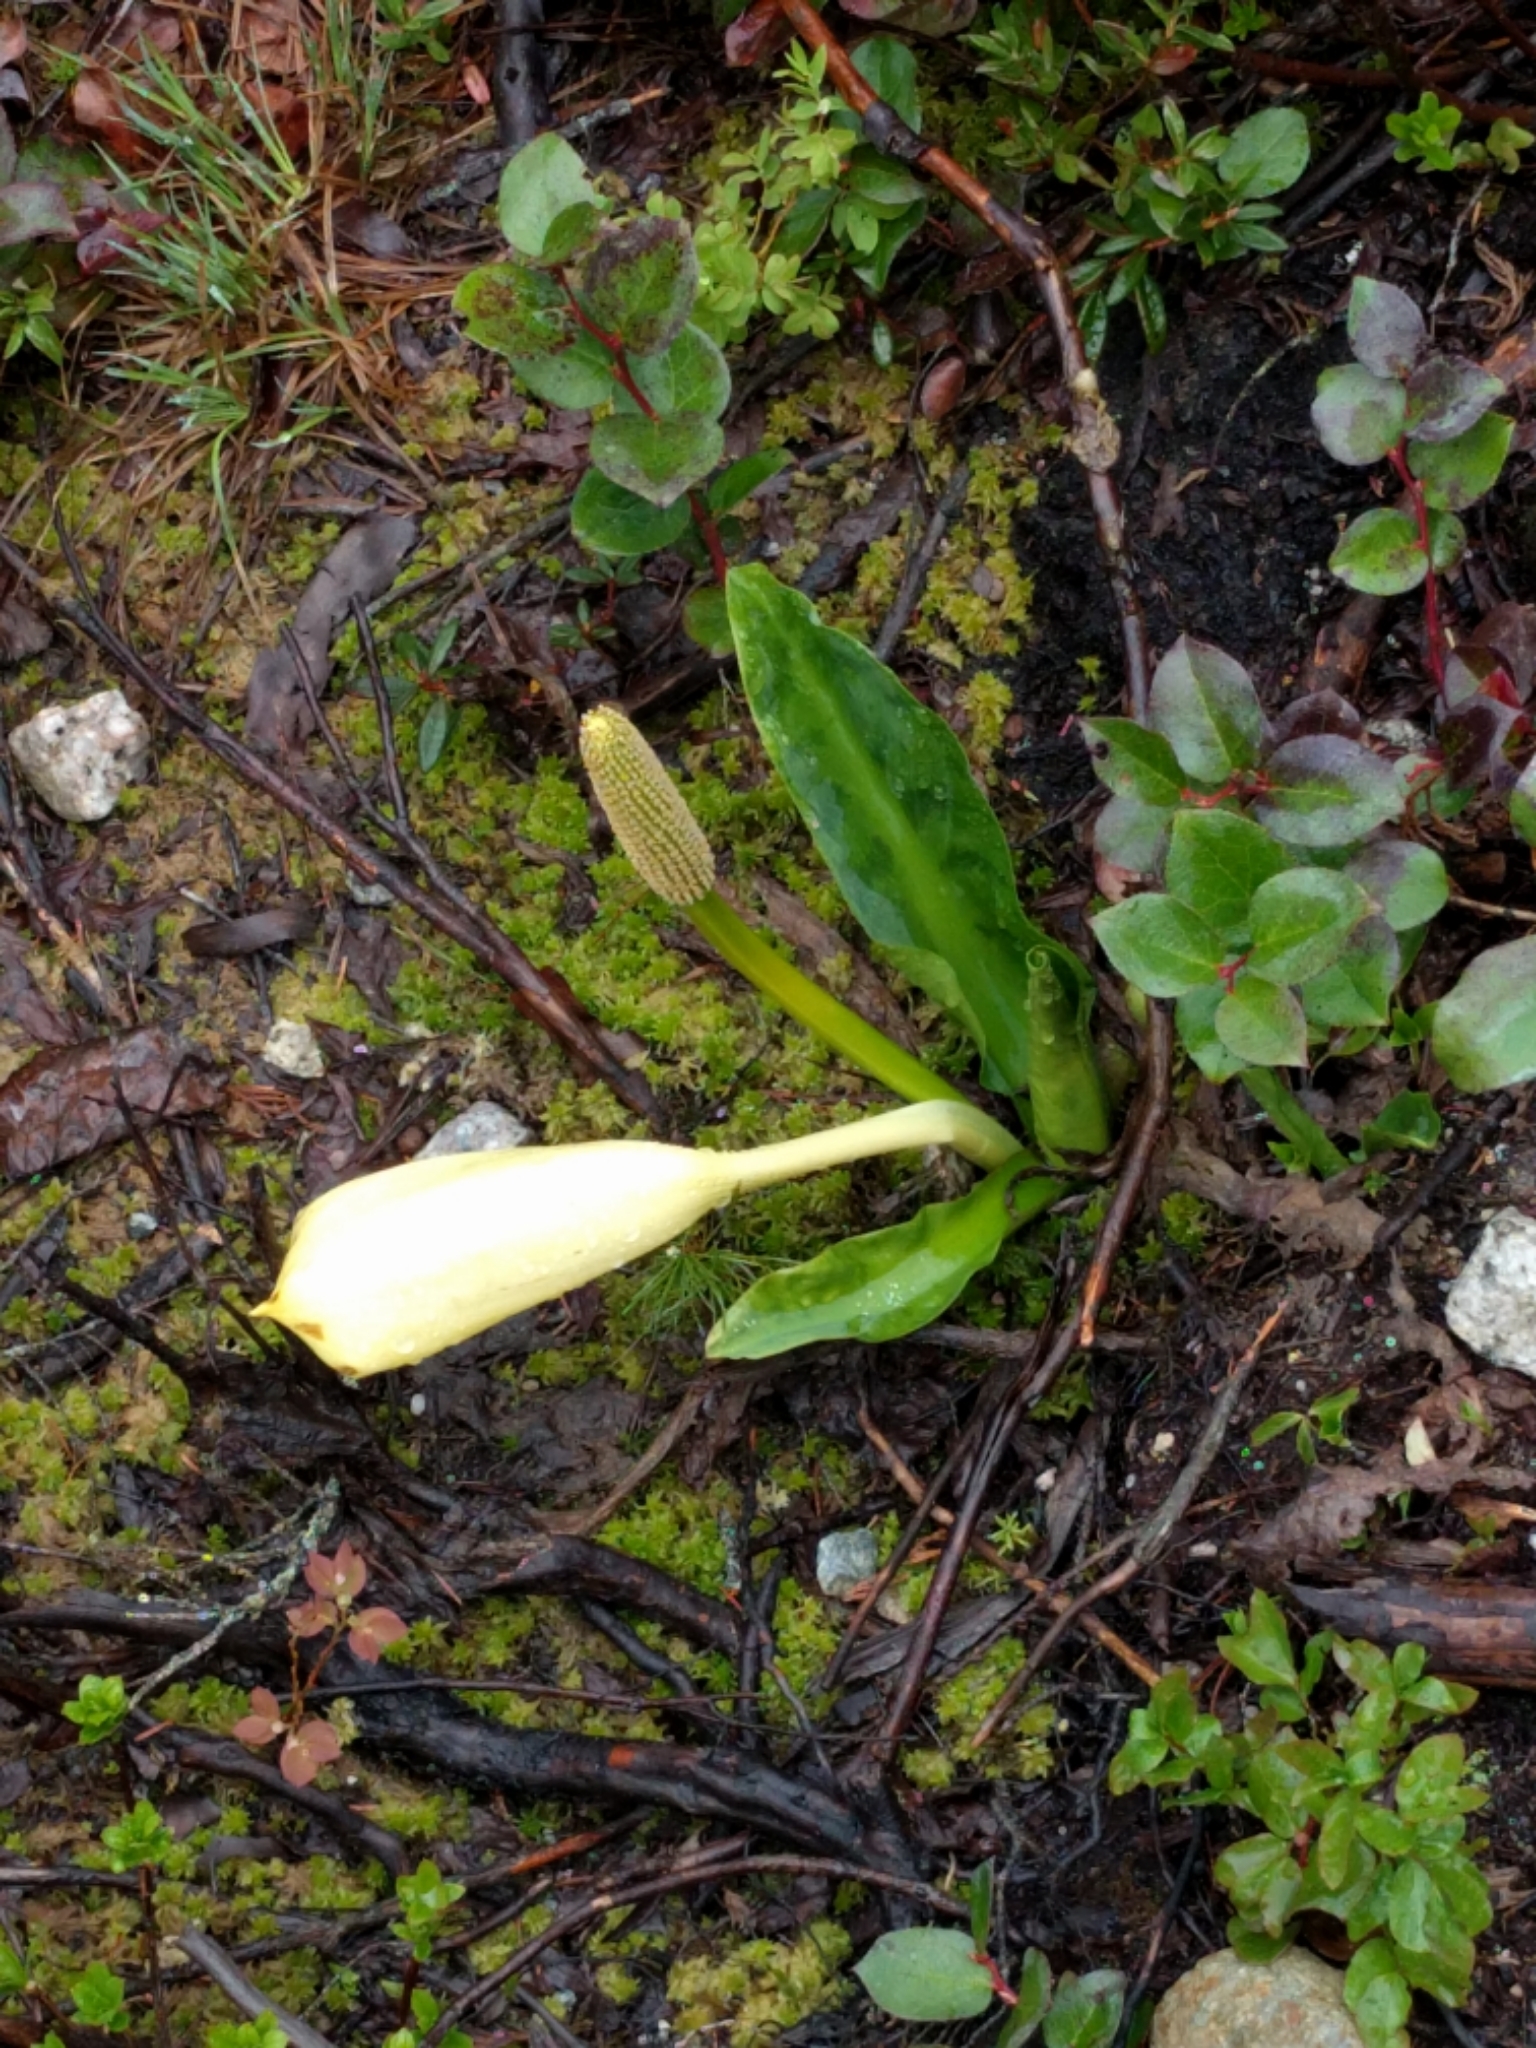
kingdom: Plantae
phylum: Tracheophyta
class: Liliopsida
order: Alismatales
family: Araceae
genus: Lysichiton
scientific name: Lysichiton americanus
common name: American skunk cabbage
